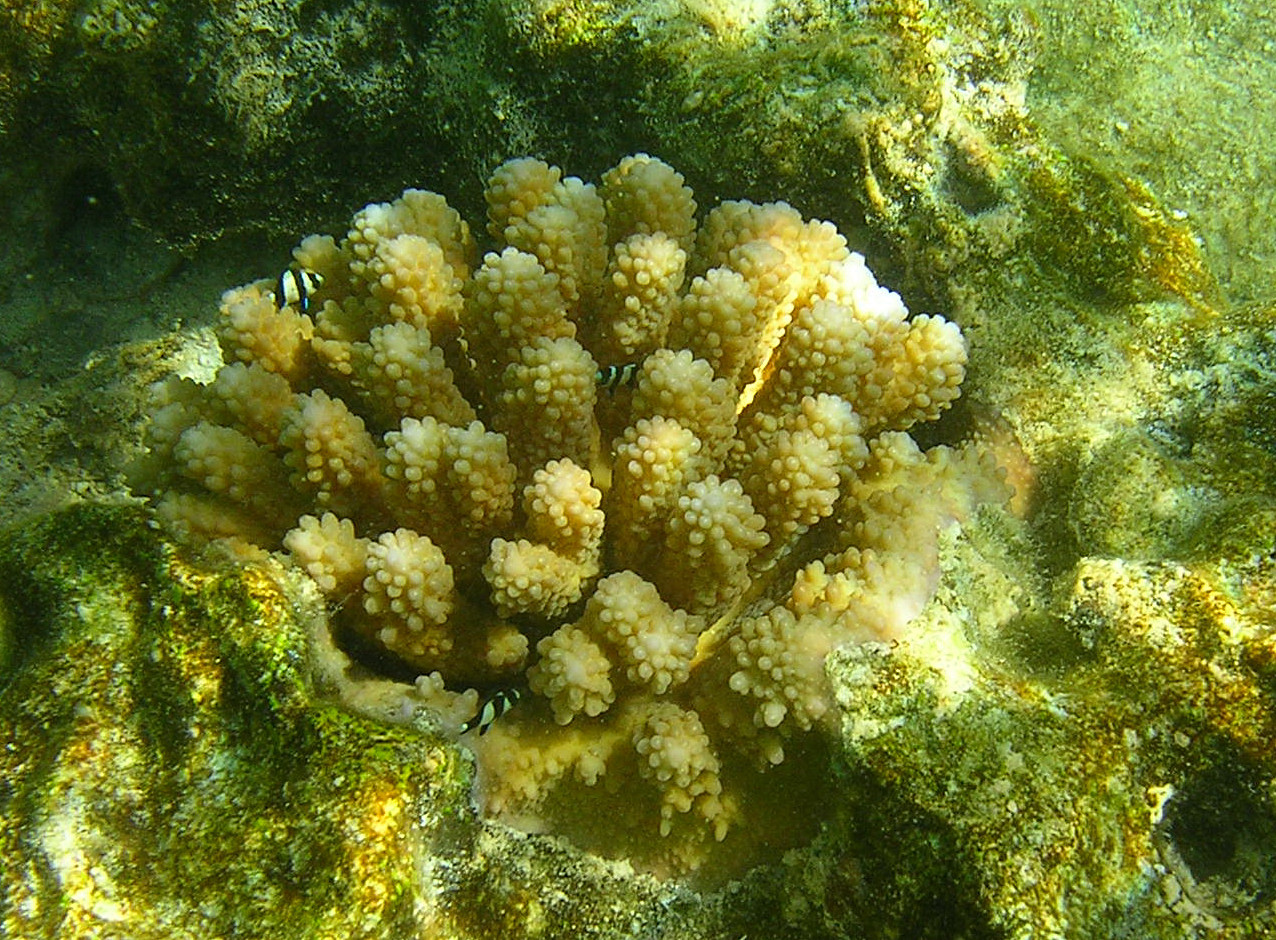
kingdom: Animalia
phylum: Chordata
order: Perciformes
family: Pomacentridae
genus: Dascyllus
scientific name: Dascyllus aruanus
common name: Humbug dascyllus
